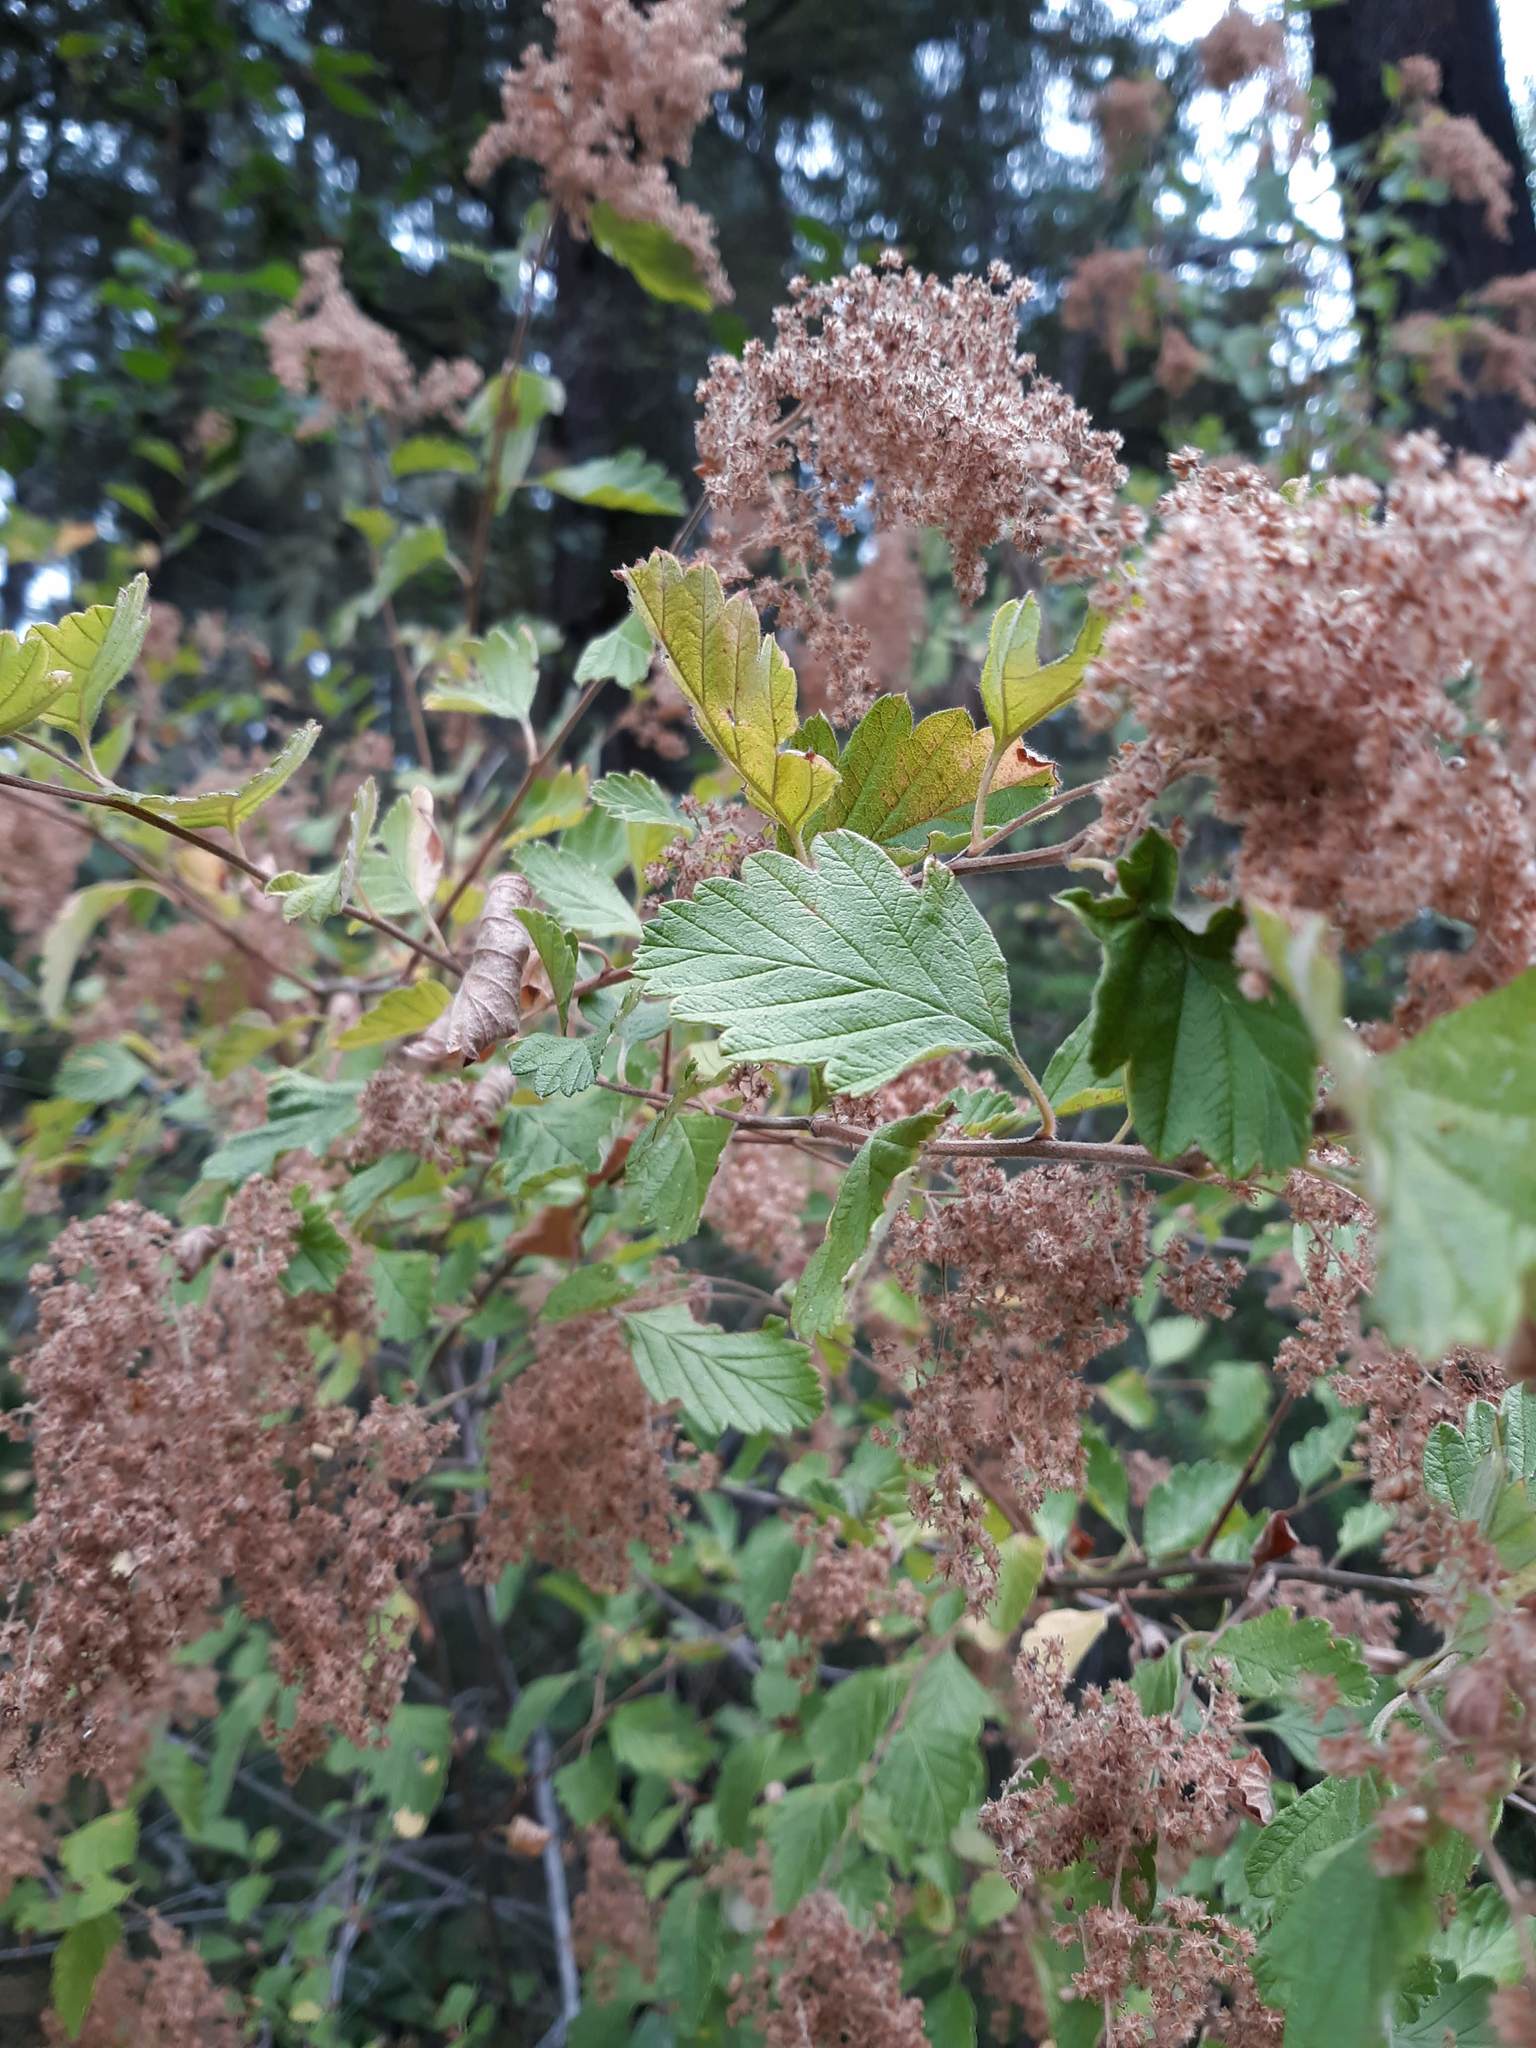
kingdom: Plantae
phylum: Tracheophyta
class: Magnoliopsida
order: Rosales
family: Rosaceae
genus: Holodiscus
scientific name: Holodiscus discolor
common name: Oceanspray
